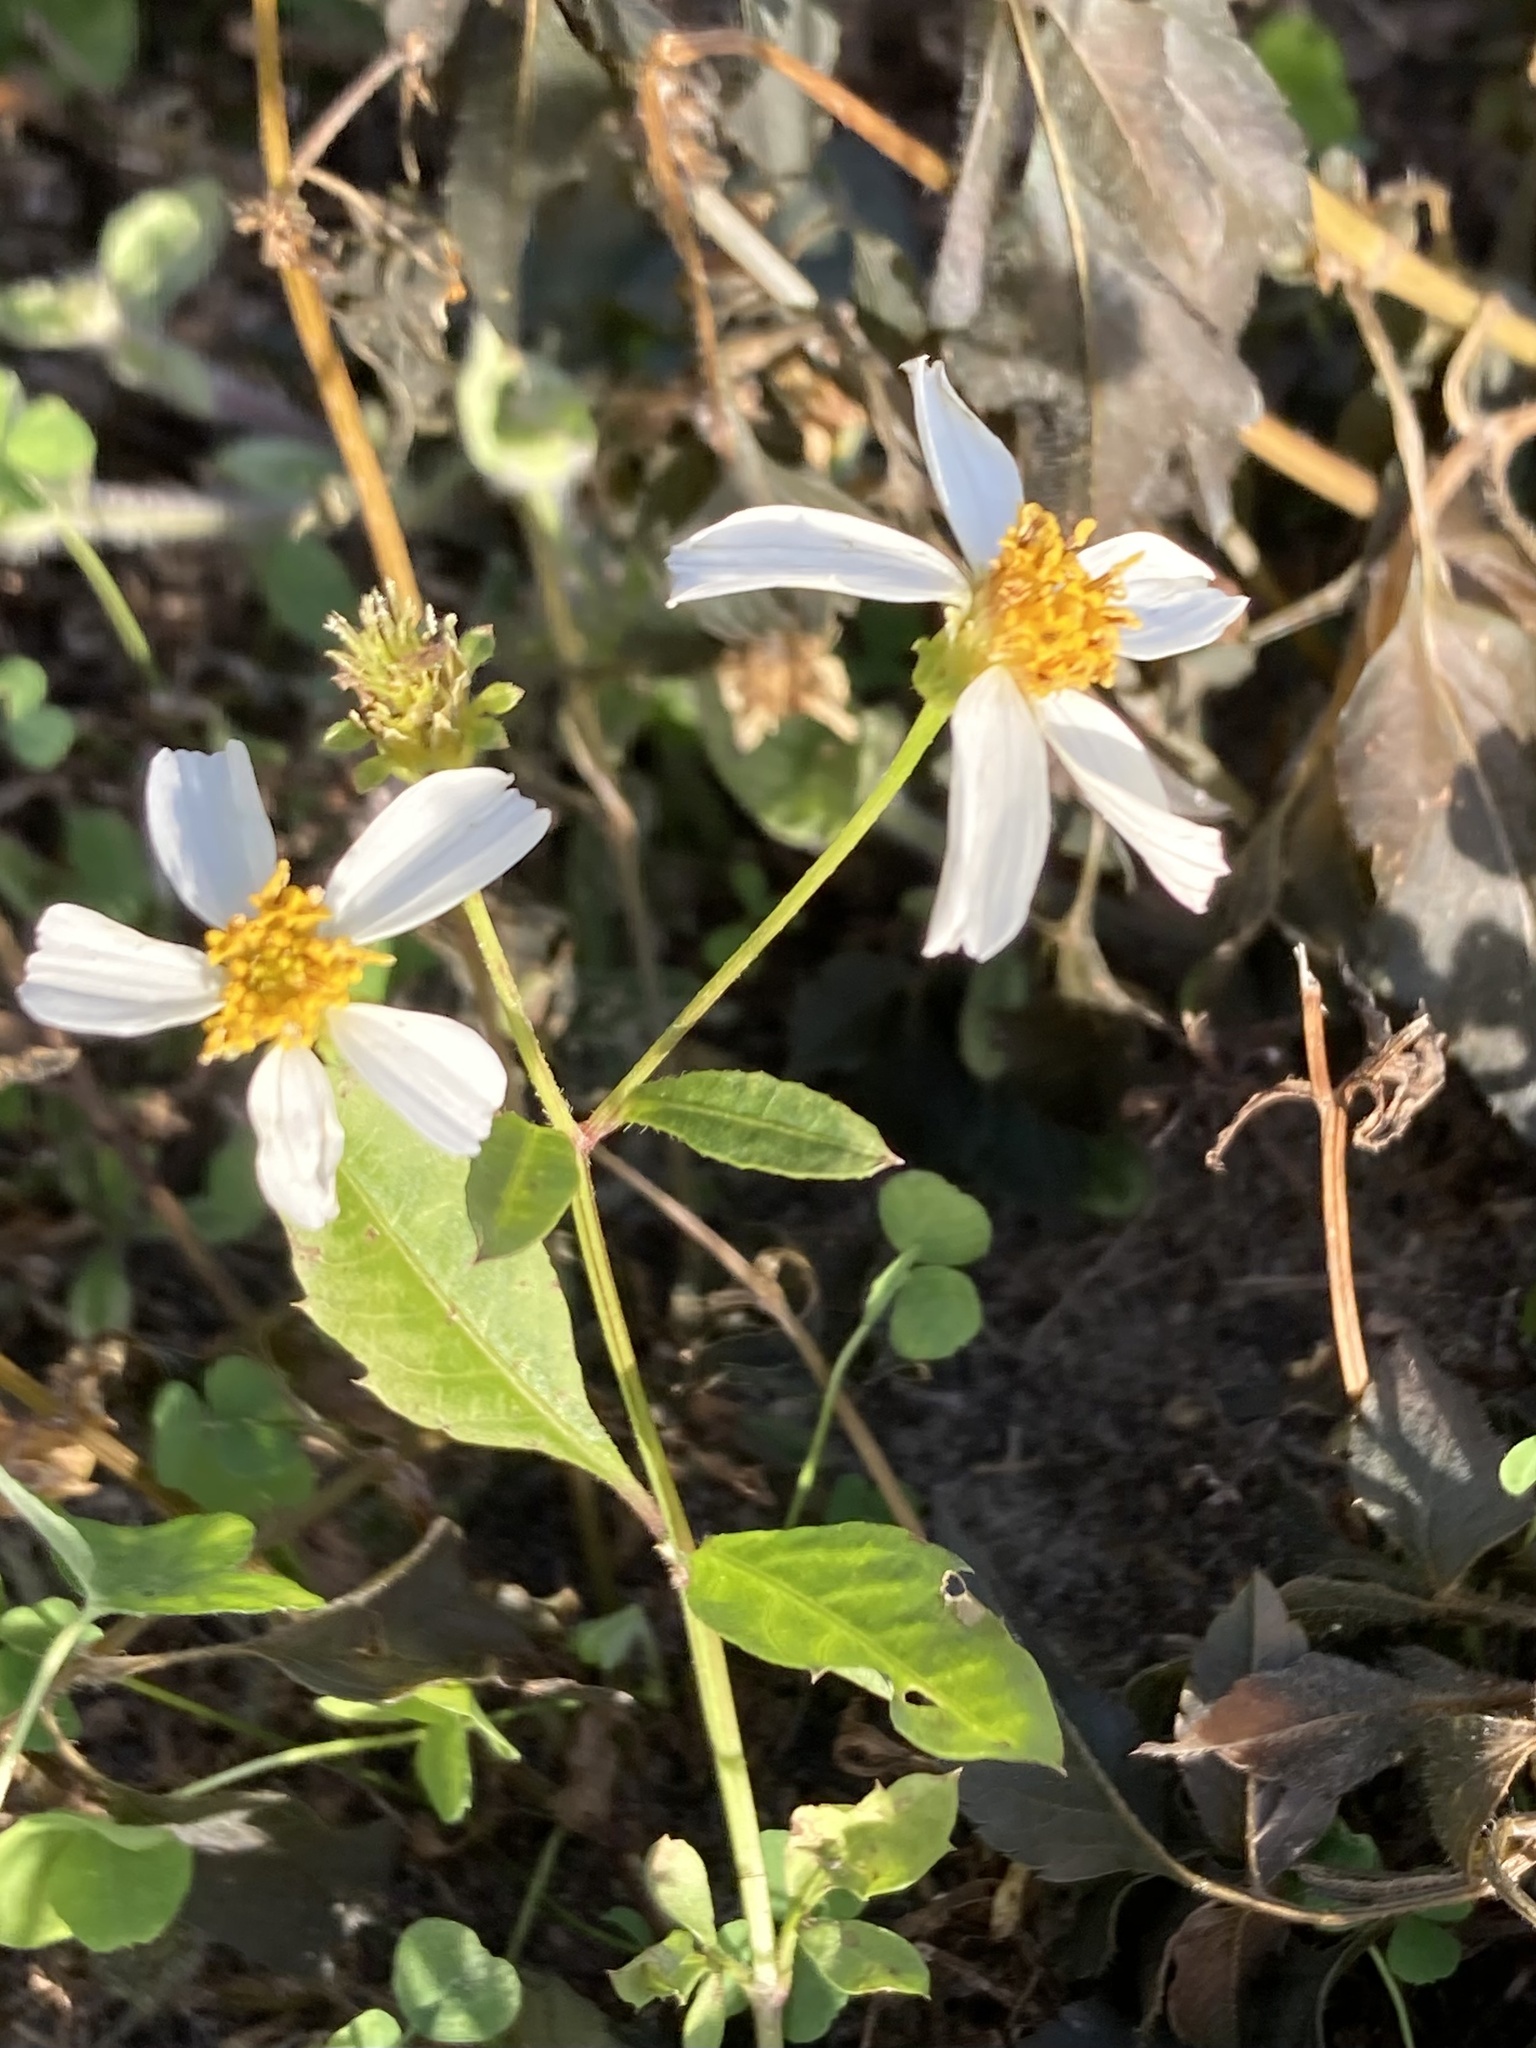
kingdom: Plantae
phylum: Tracheophyta
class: Magnoliopsida
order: Asterales
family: Asteraceae
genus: Bidens
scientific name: Bidens alba
